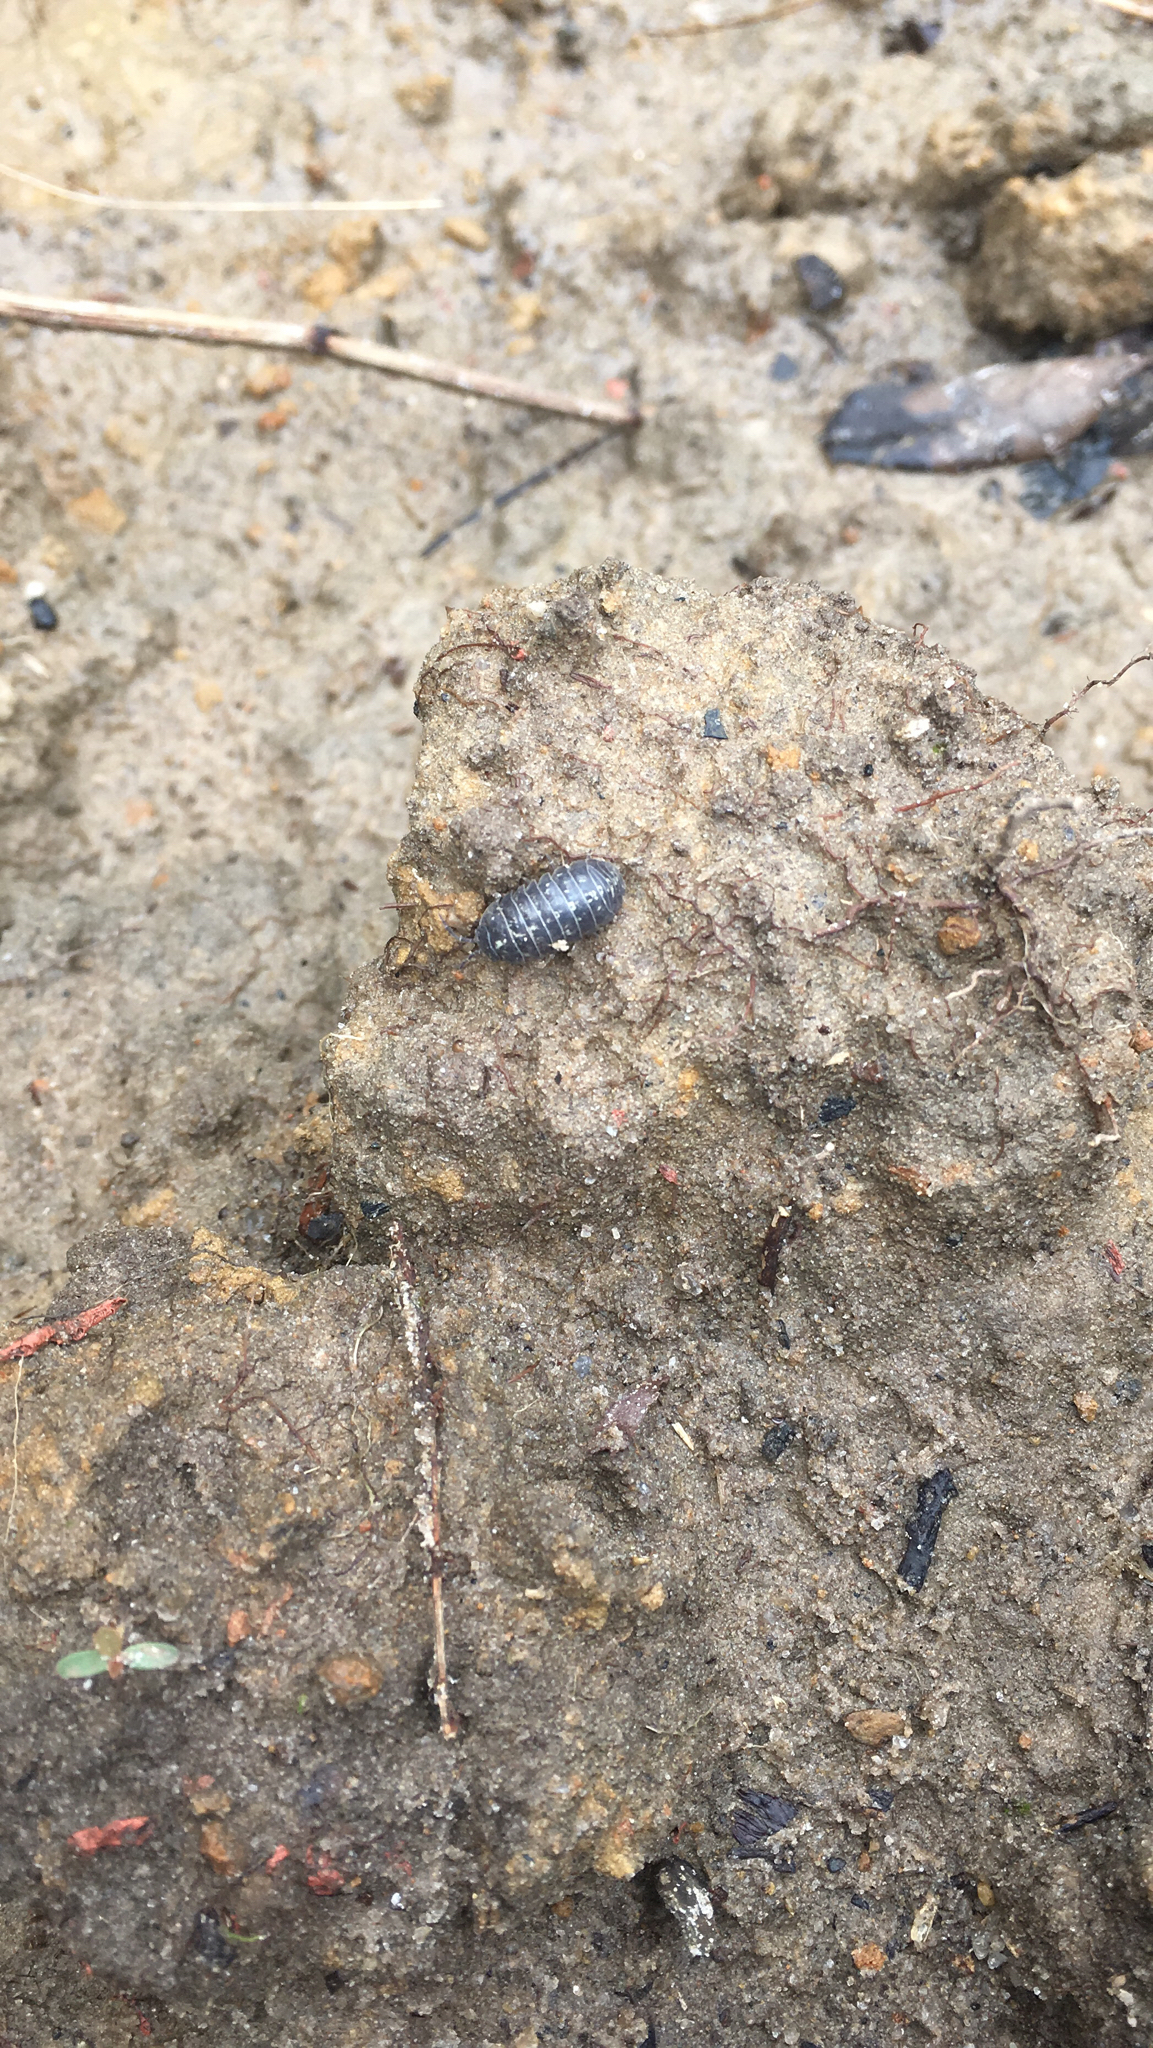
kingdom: Animalia
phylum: Arthropoda
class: Malacostraca
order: Isopoda
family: Armadillidiidae
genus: Armadillidium
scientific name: Armadillidium vulgare
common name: Common pill woodlouse
